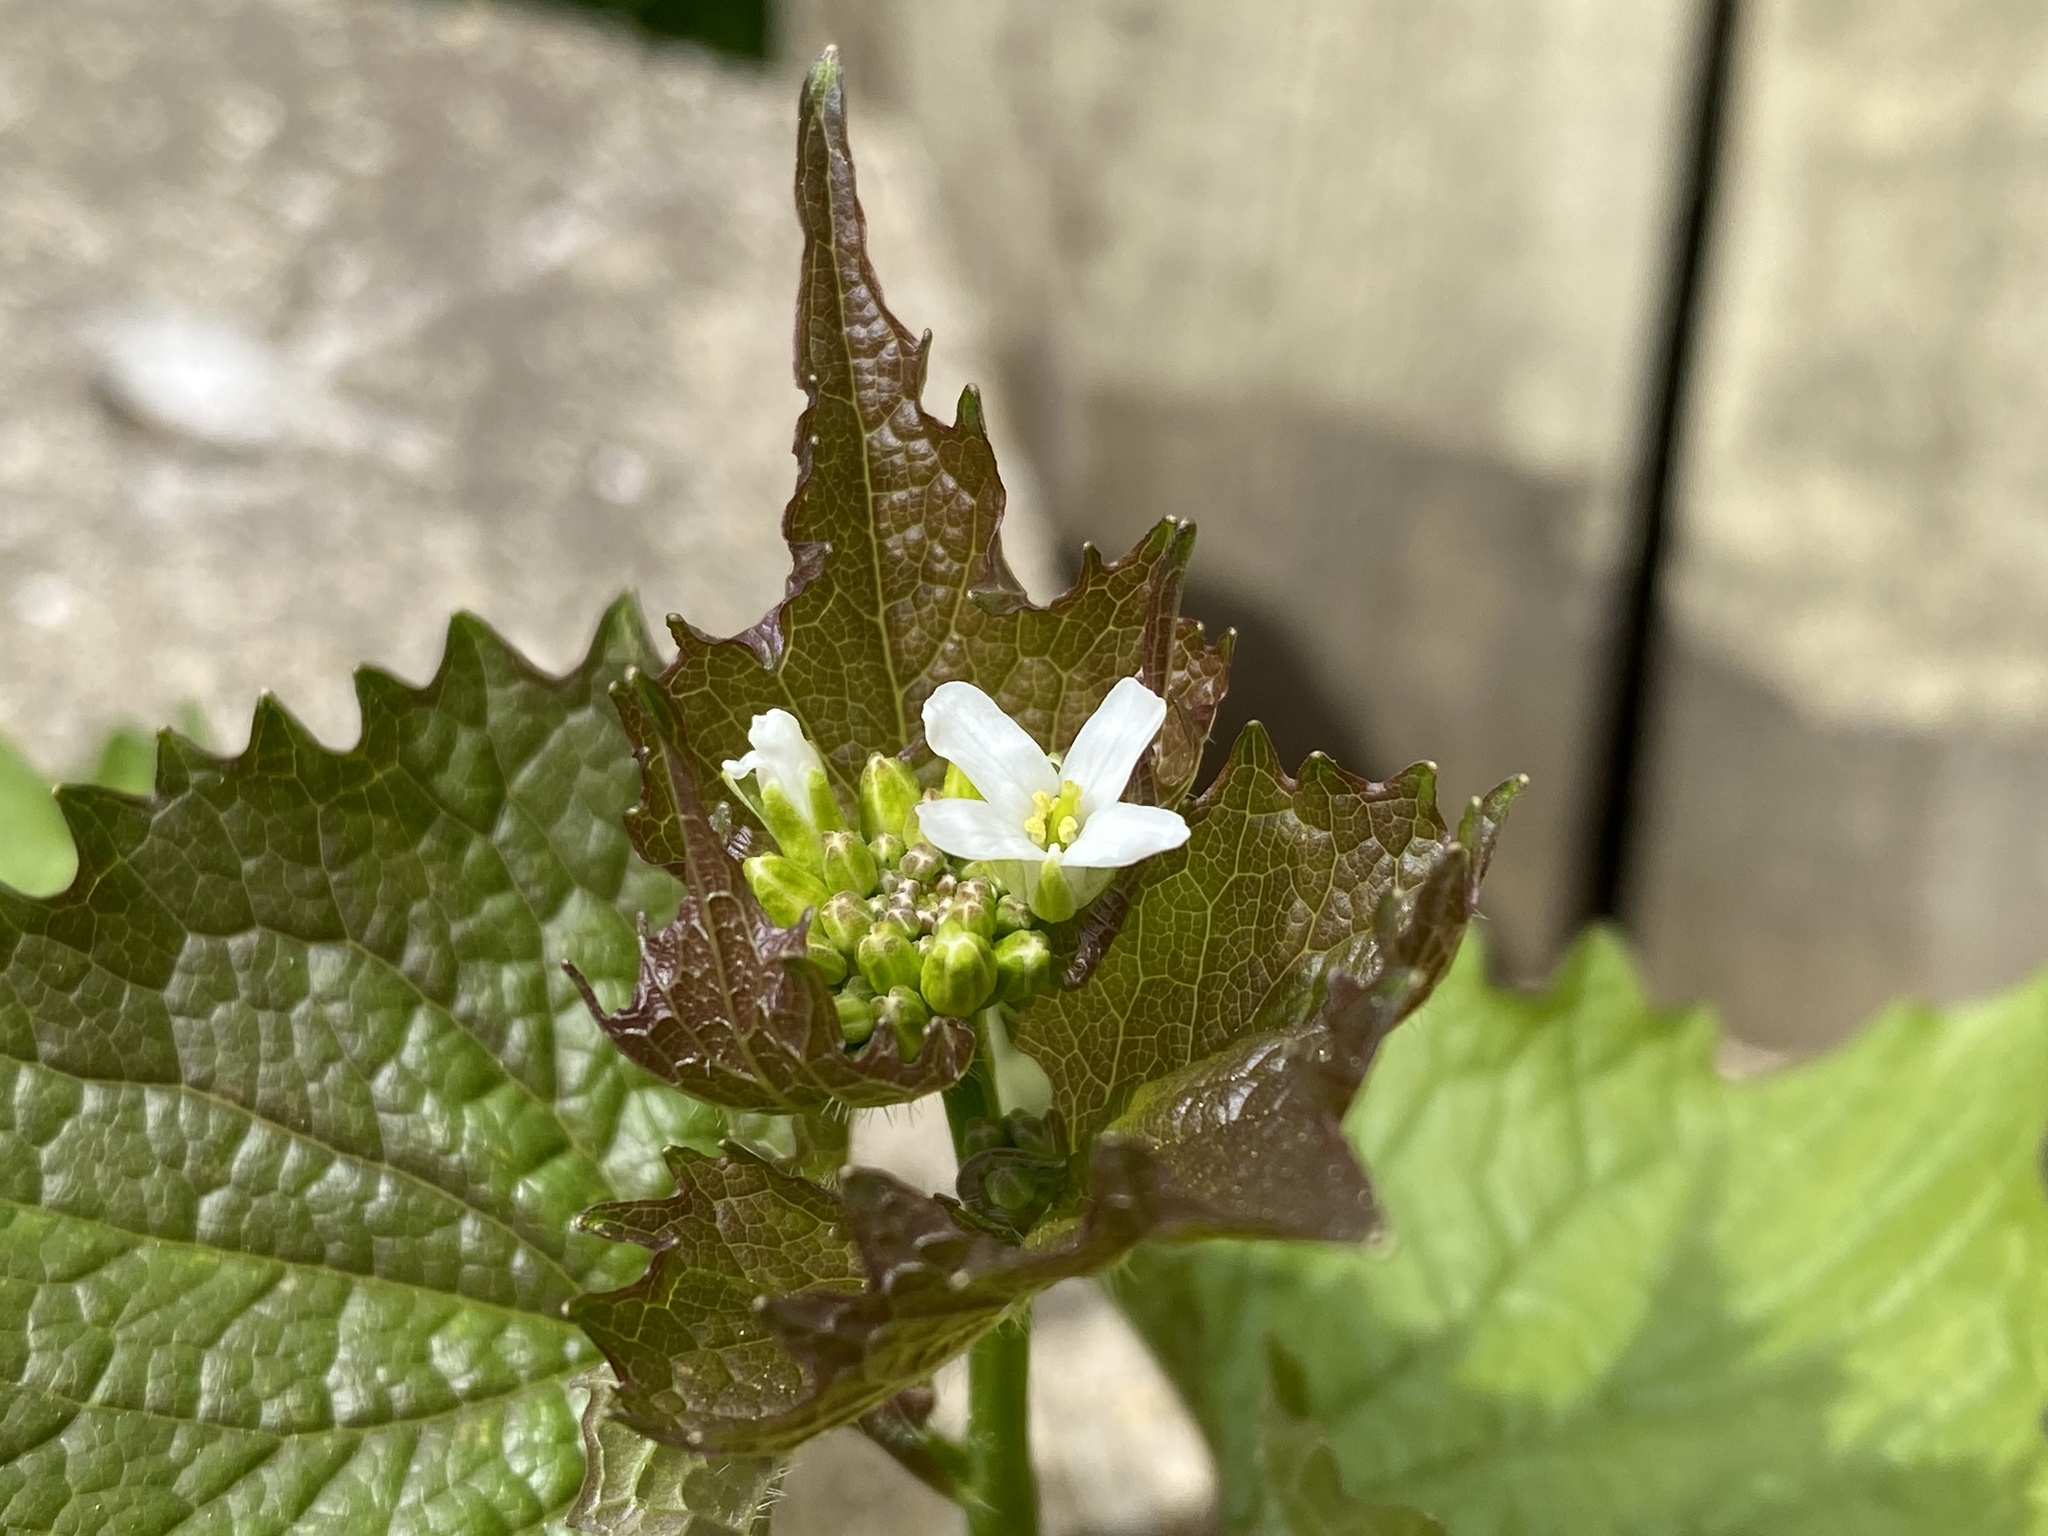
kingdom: Plantae
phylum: Tracheophyta
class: Magnoliopsida
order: Brassicales
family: Brassicaceae
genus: Alliaria
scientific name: Alliaria petiolata
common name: Garlic mustard
